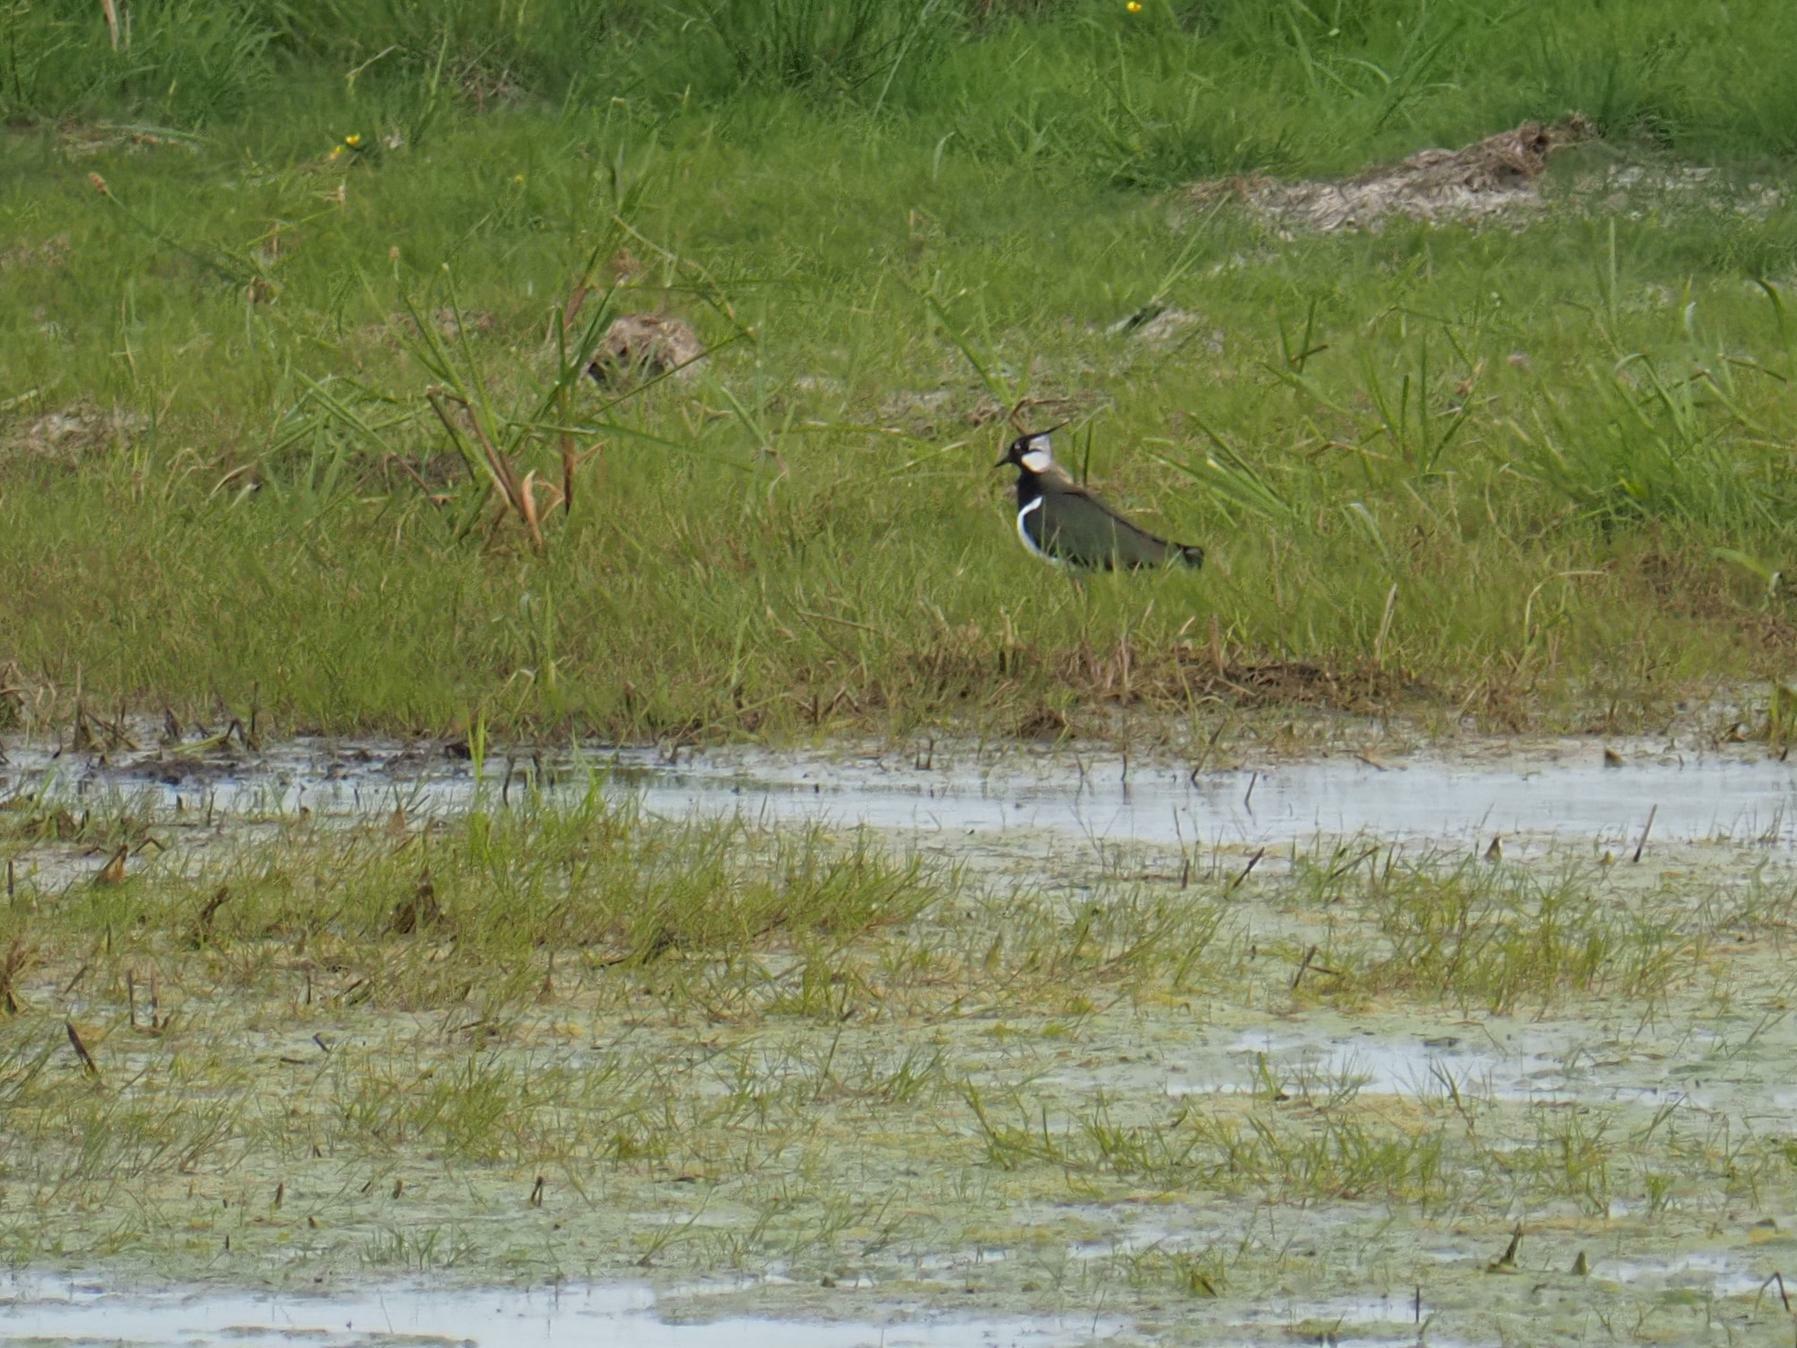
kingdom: Animalia
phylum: Chordata
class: Aves
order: Charadriiformes
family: Charadriidae
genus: Vanellus
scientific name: Vanellus vanellus
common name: Northern lapwing
